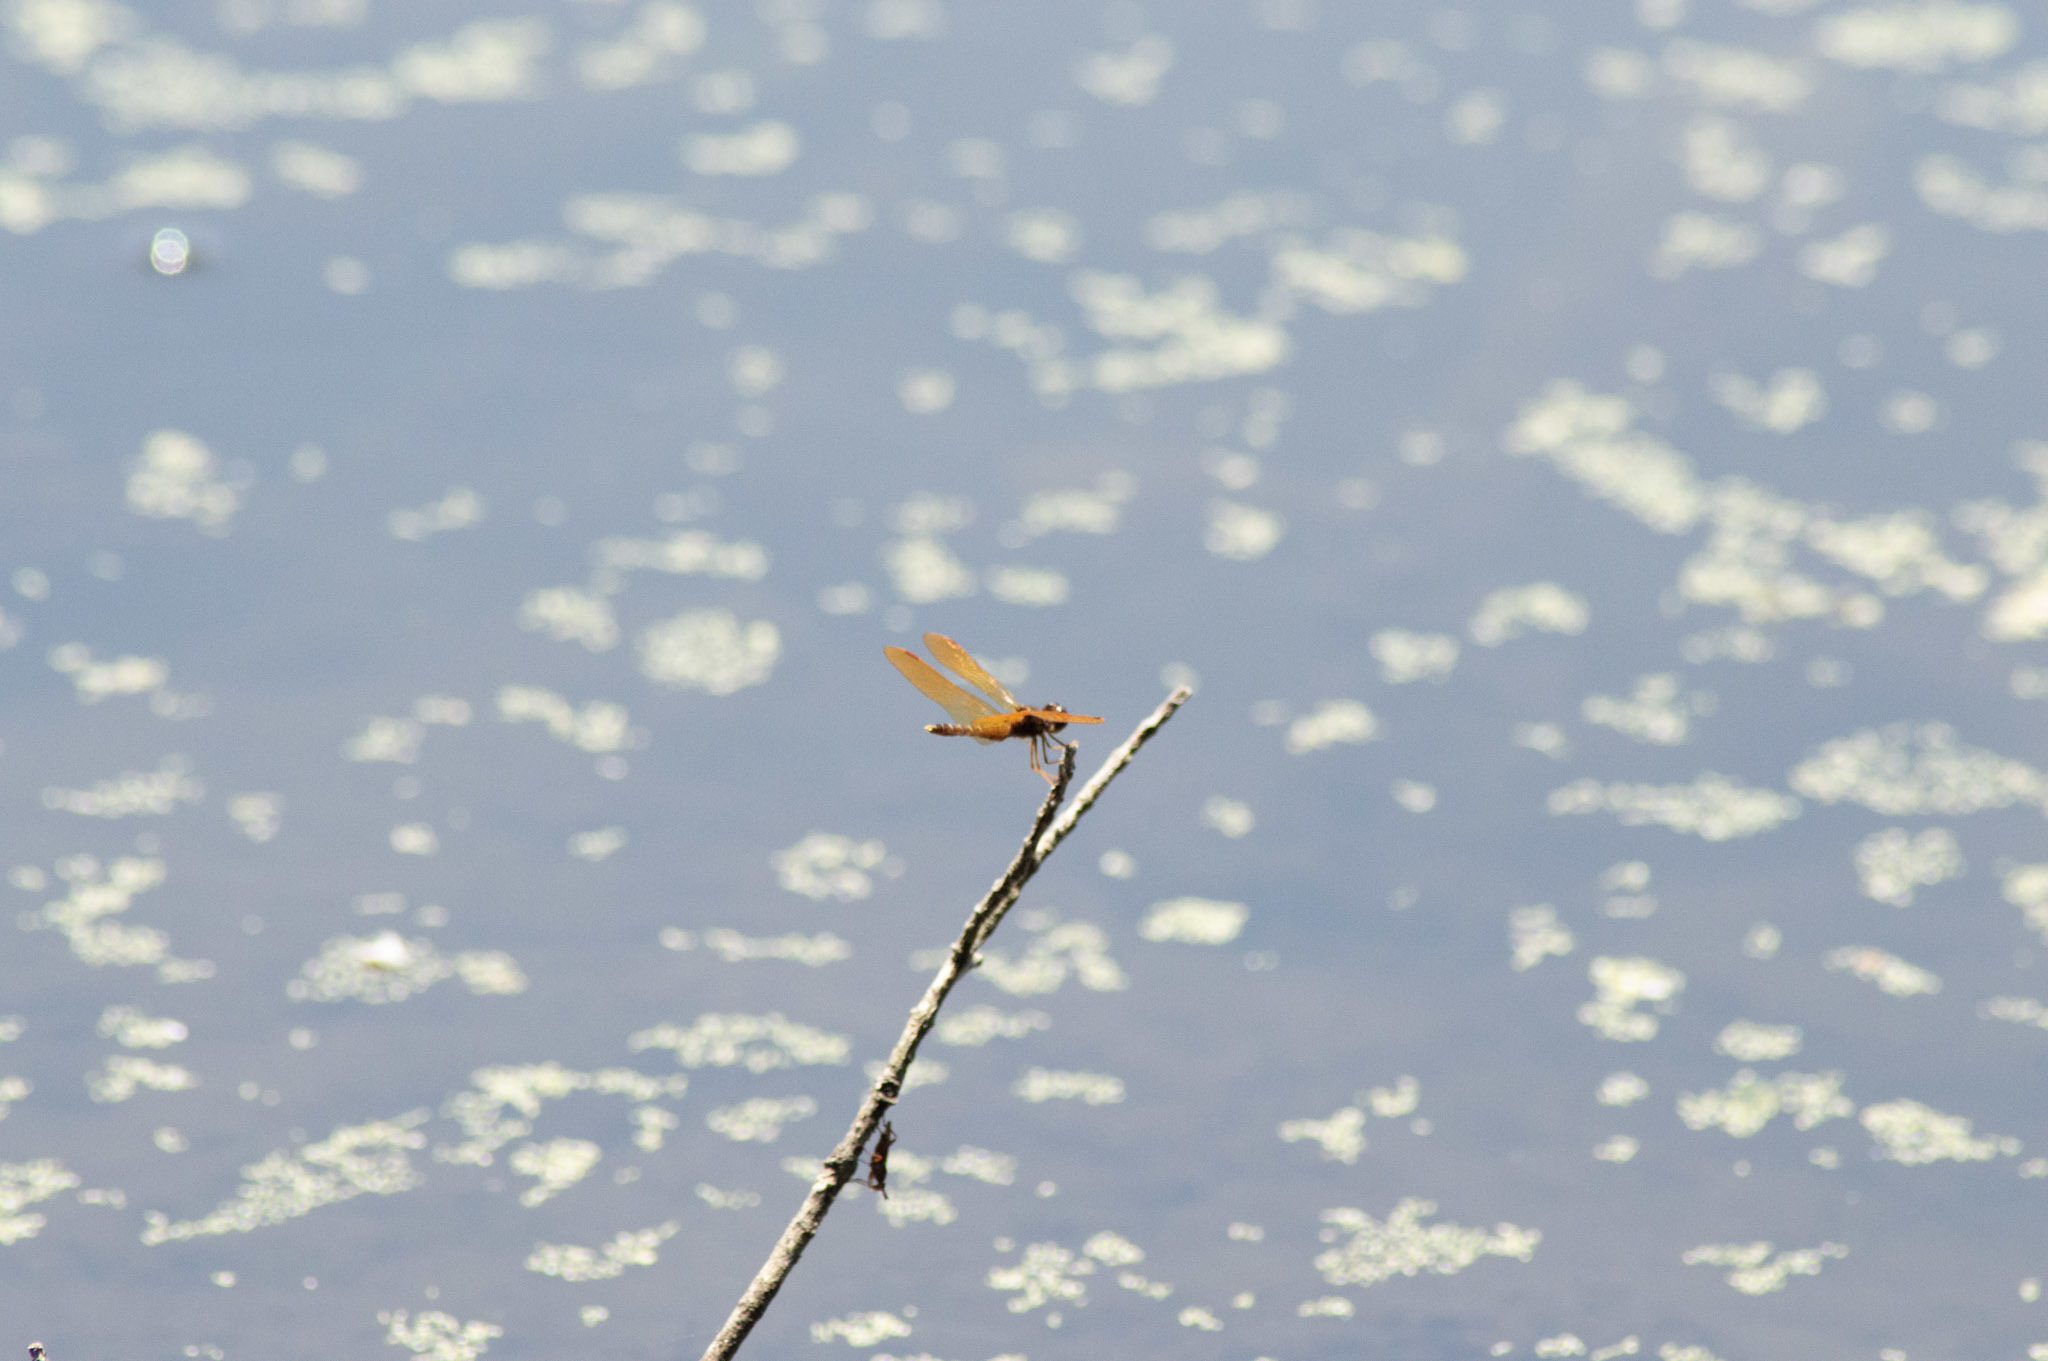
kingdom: Animalia
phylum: Arthropoda
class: Insecta
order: Odonata
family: Libellulidae
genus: Perithemis
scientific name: Perithemis tenera
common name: Eastern amberwing
